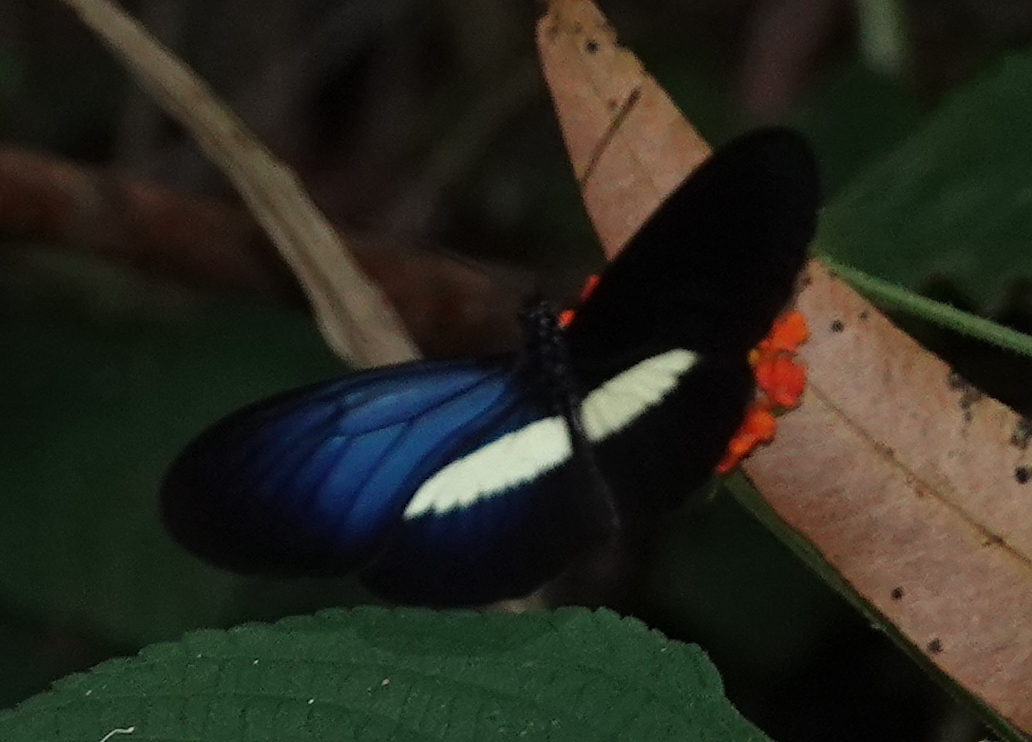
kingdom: Animalia
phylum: Arthropoda
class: Insecta
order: Lepidoptera
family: Nymphalidae
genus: Heliconius
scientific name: Heliconius erato
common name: Common patch longwing
